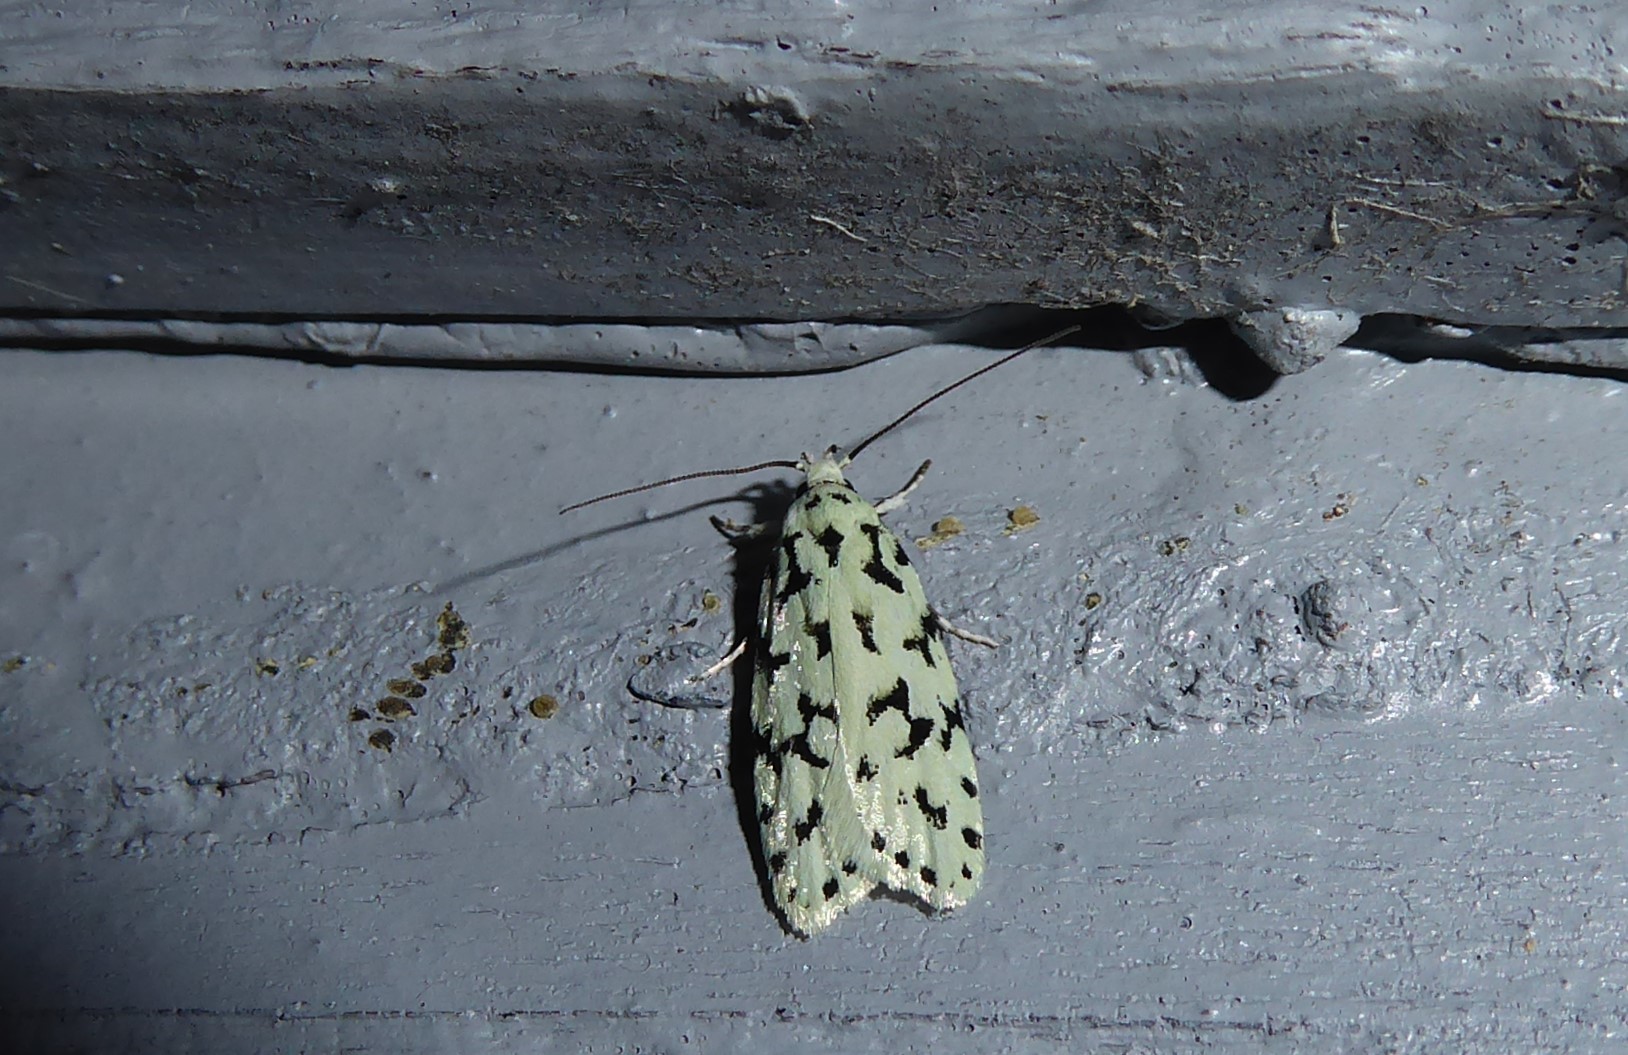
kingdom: Animalia
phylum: Arthropoda
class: Insecta
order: Lepidoptera
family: Oecophoridae
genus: Izatha
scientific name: Izatha huttoni
